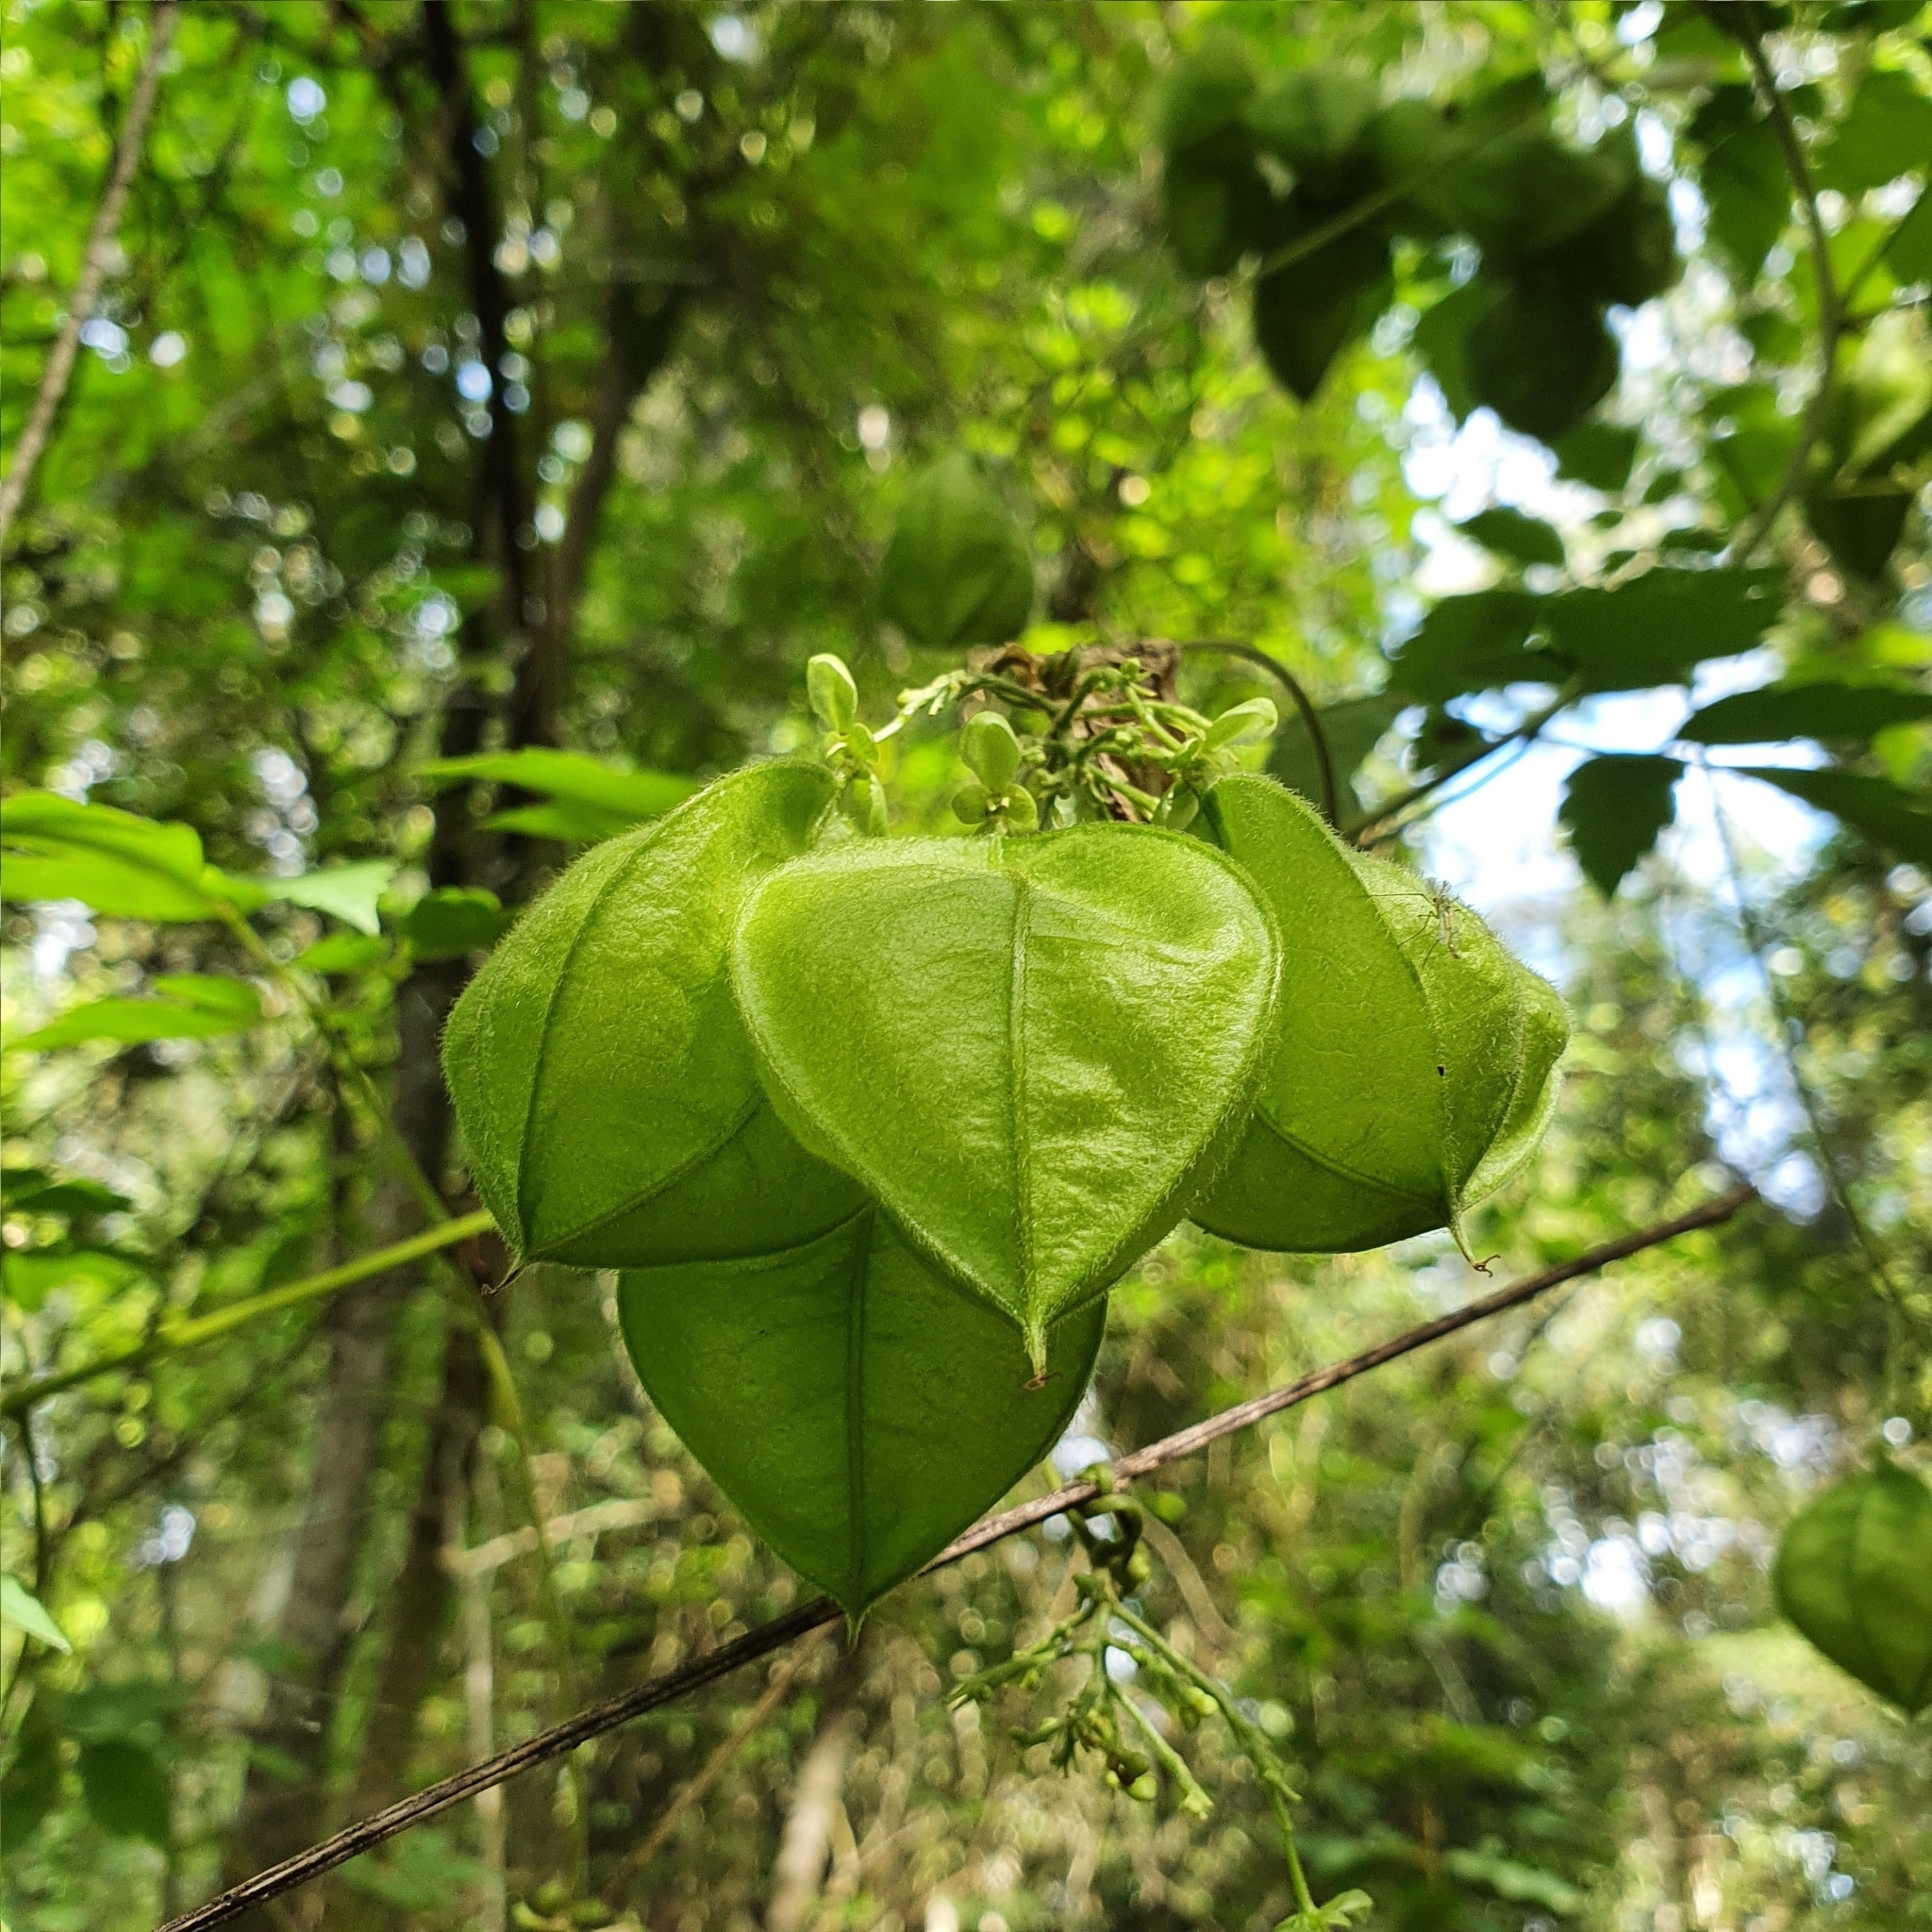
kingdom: Plantae
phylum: Tracheophyta
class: Magnoliopsida
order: Sapindales
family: Sapindaceae
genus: Cardiospermum
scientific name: Cardiospermum grandiflorum
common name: Balloon vine
